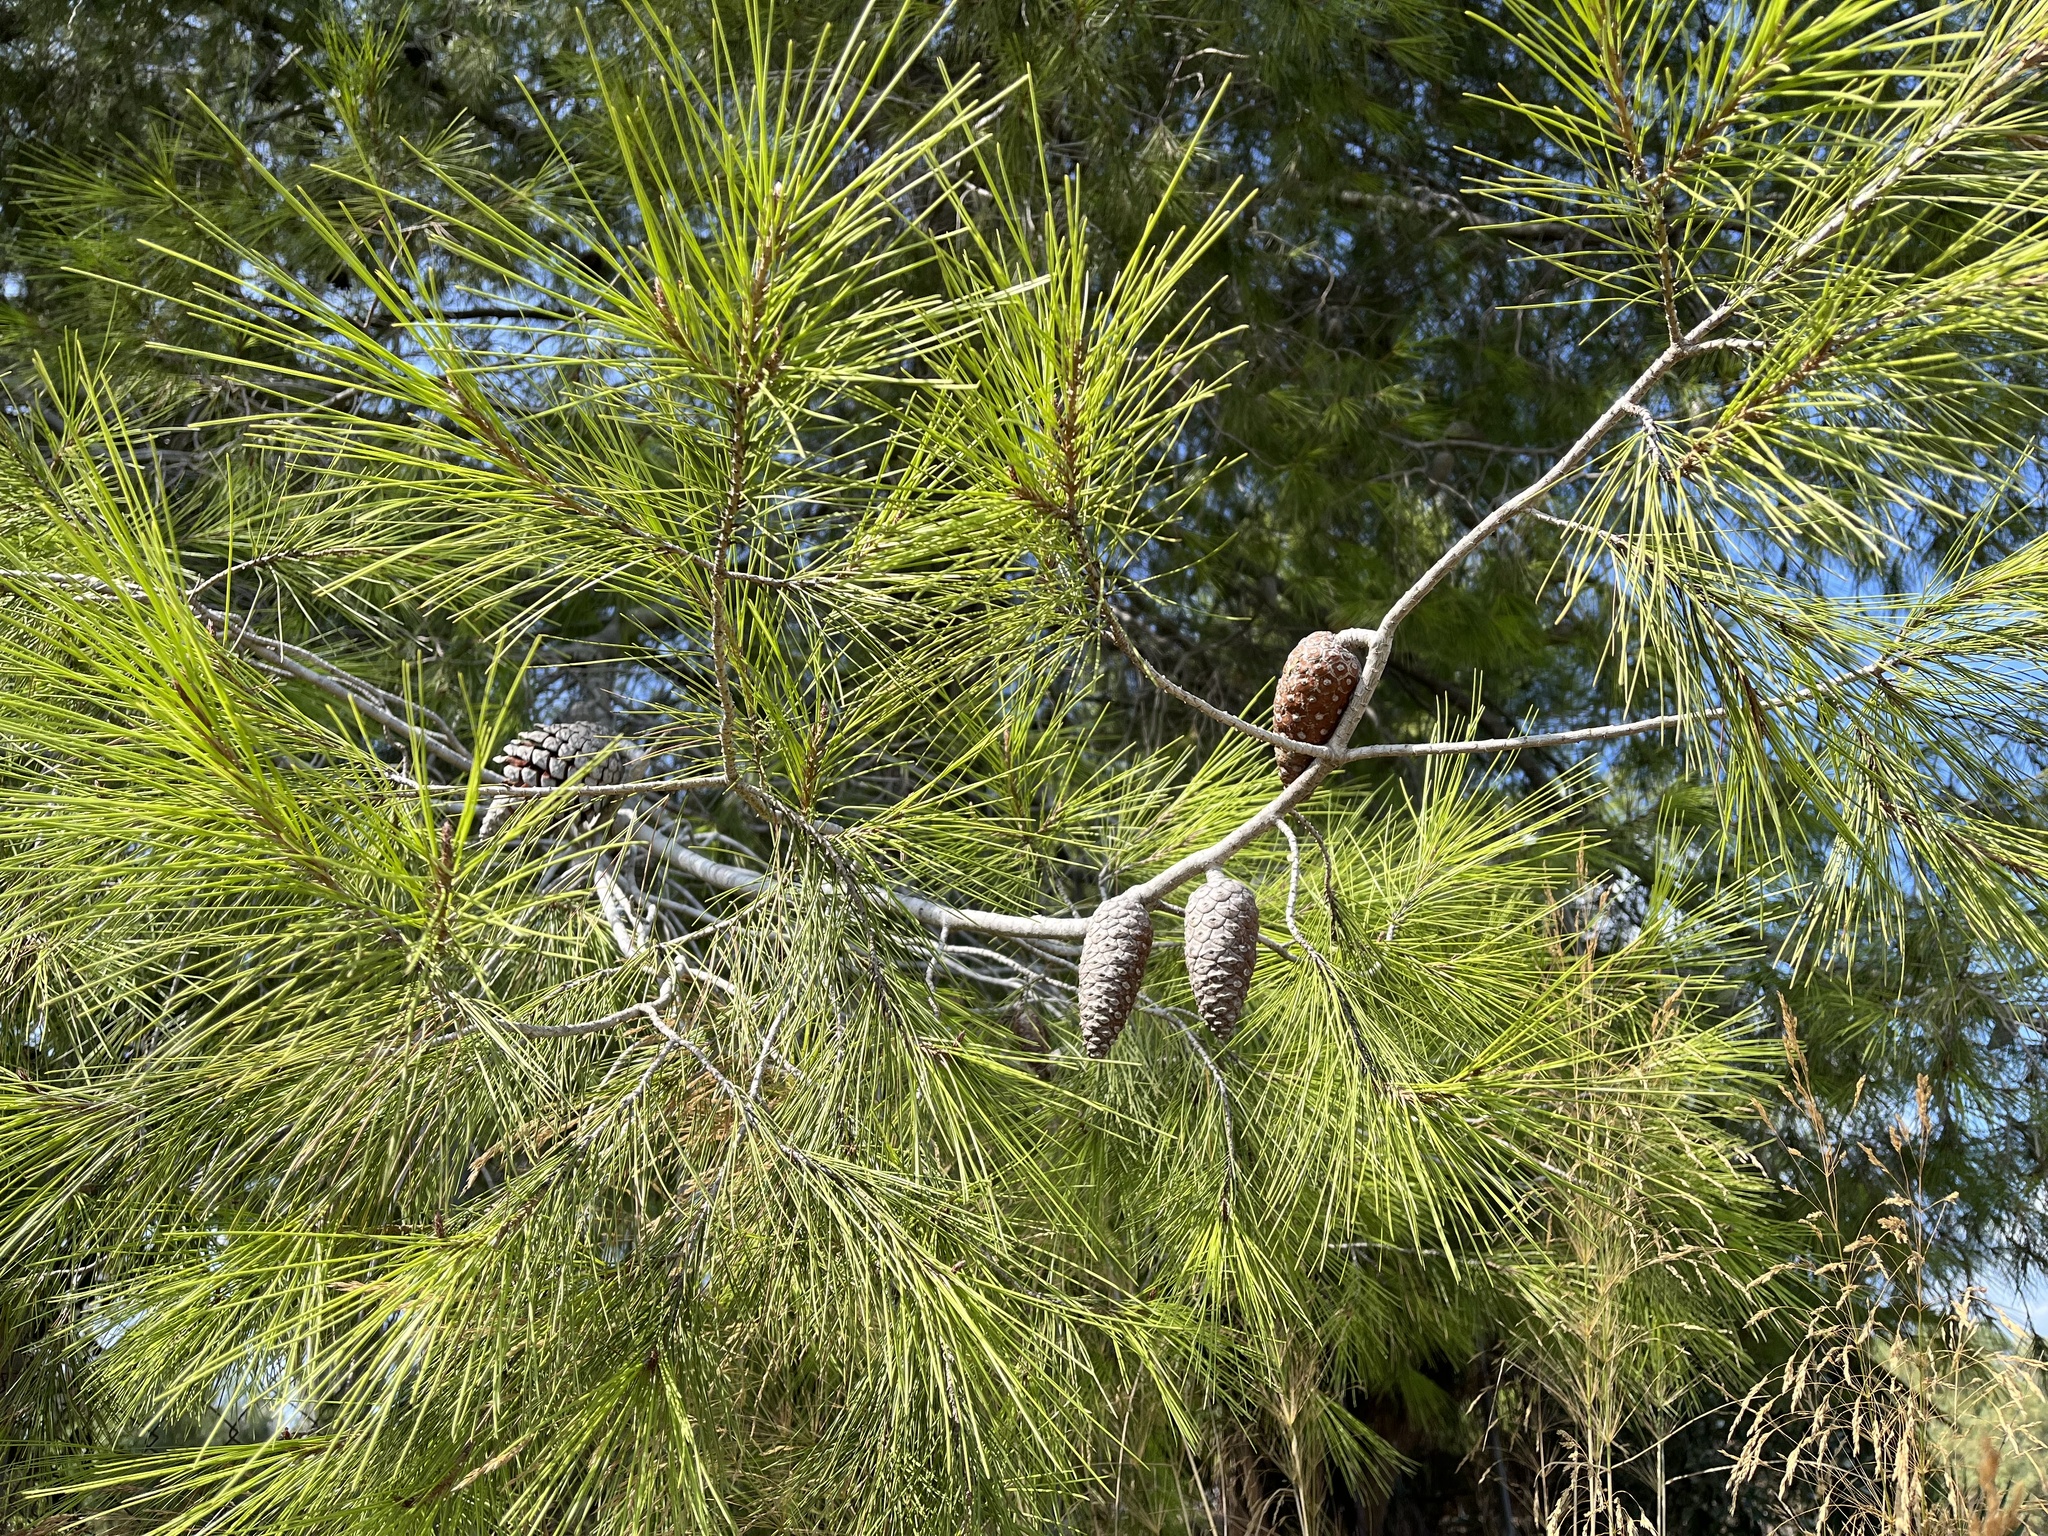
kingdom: Plantae
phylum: Tracheophyta
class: Pinopsida
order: Pinales
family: Pinaceae
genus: Pinus
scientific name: Pinus halepensis
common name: Aleppo pine
